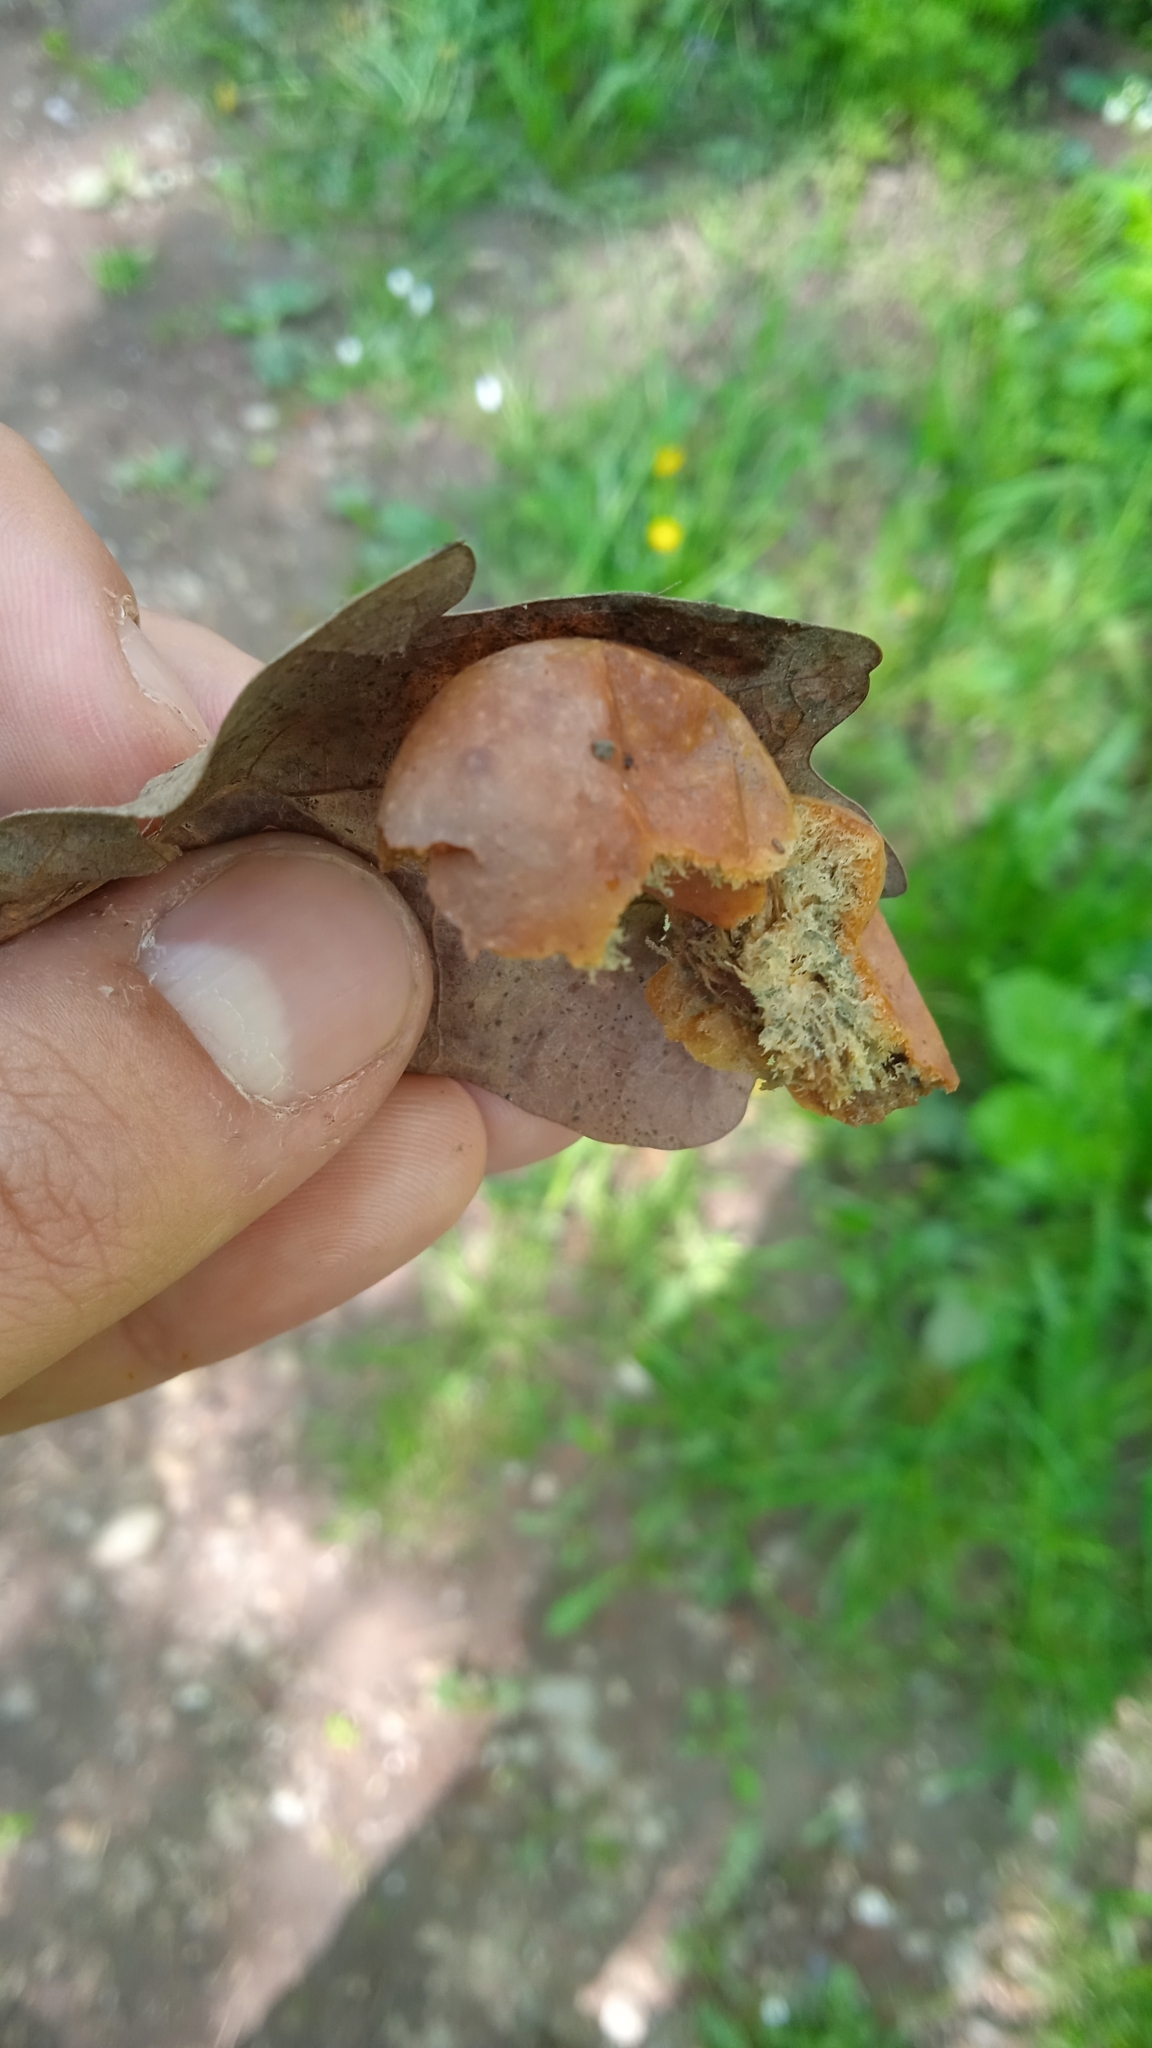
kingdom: Animalia
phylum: Arthropoda
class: Insecta
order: Hymenoptera
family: Cynipidae
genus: Cynips
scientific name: Cynips quercusfolii
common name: Cherry gall
